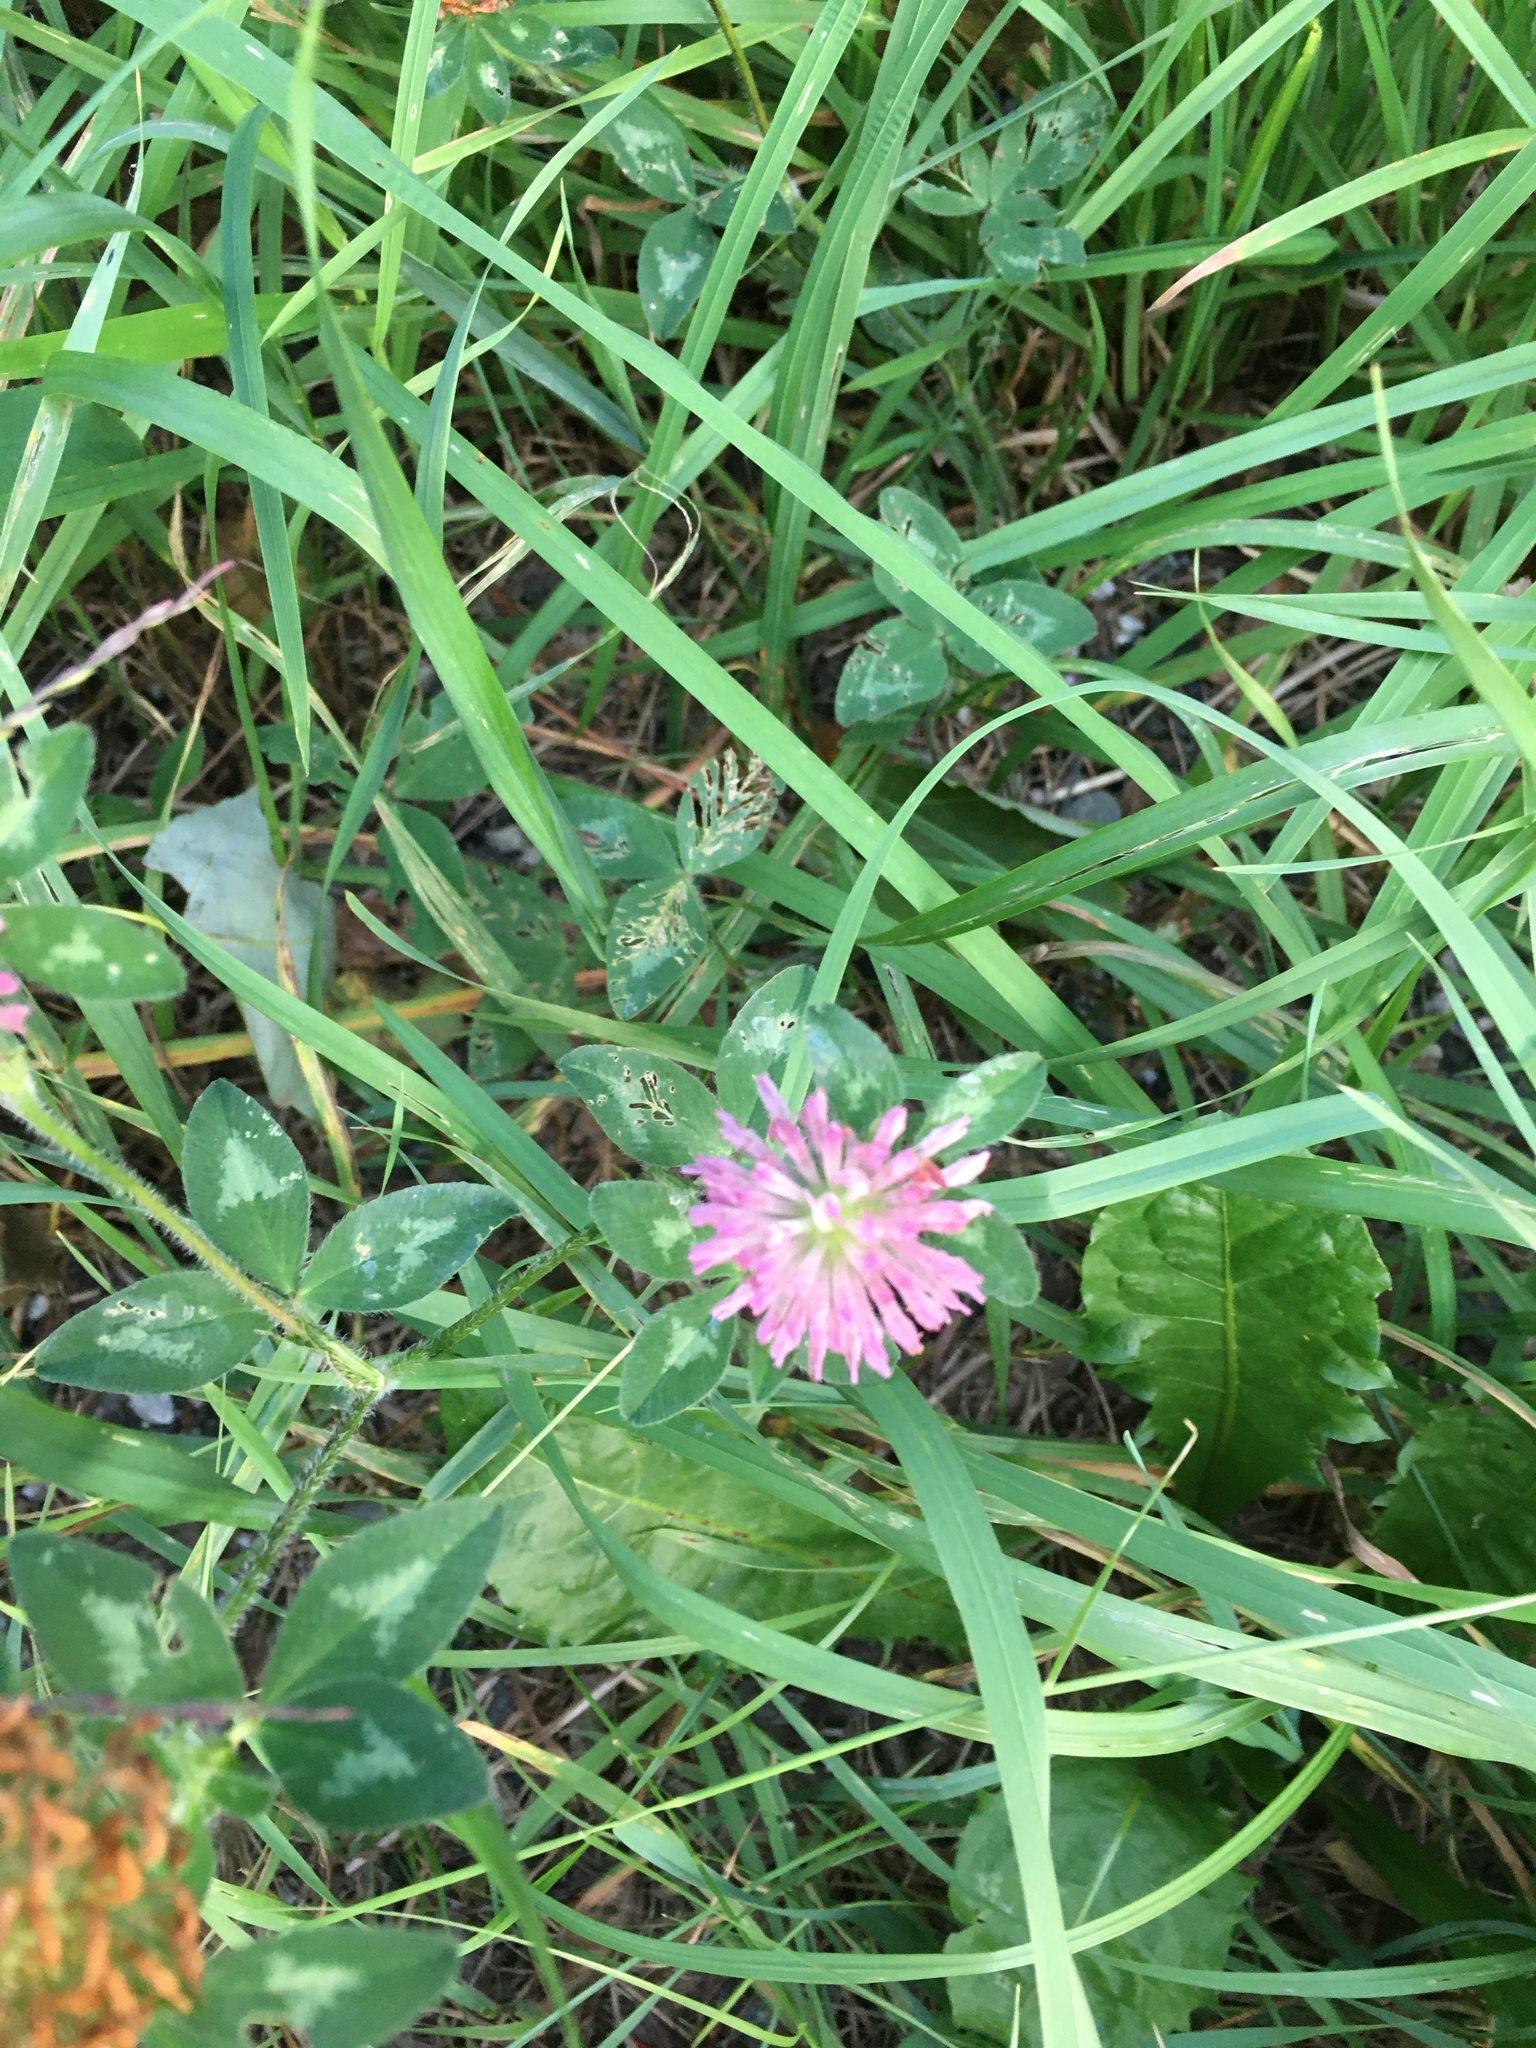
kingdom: Plantae
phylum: Tracheophyta
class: Magnoliopsida
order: Fabales
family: Fabaceae
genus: Trifolium
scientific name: Trifolium pratense
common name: Red clover
